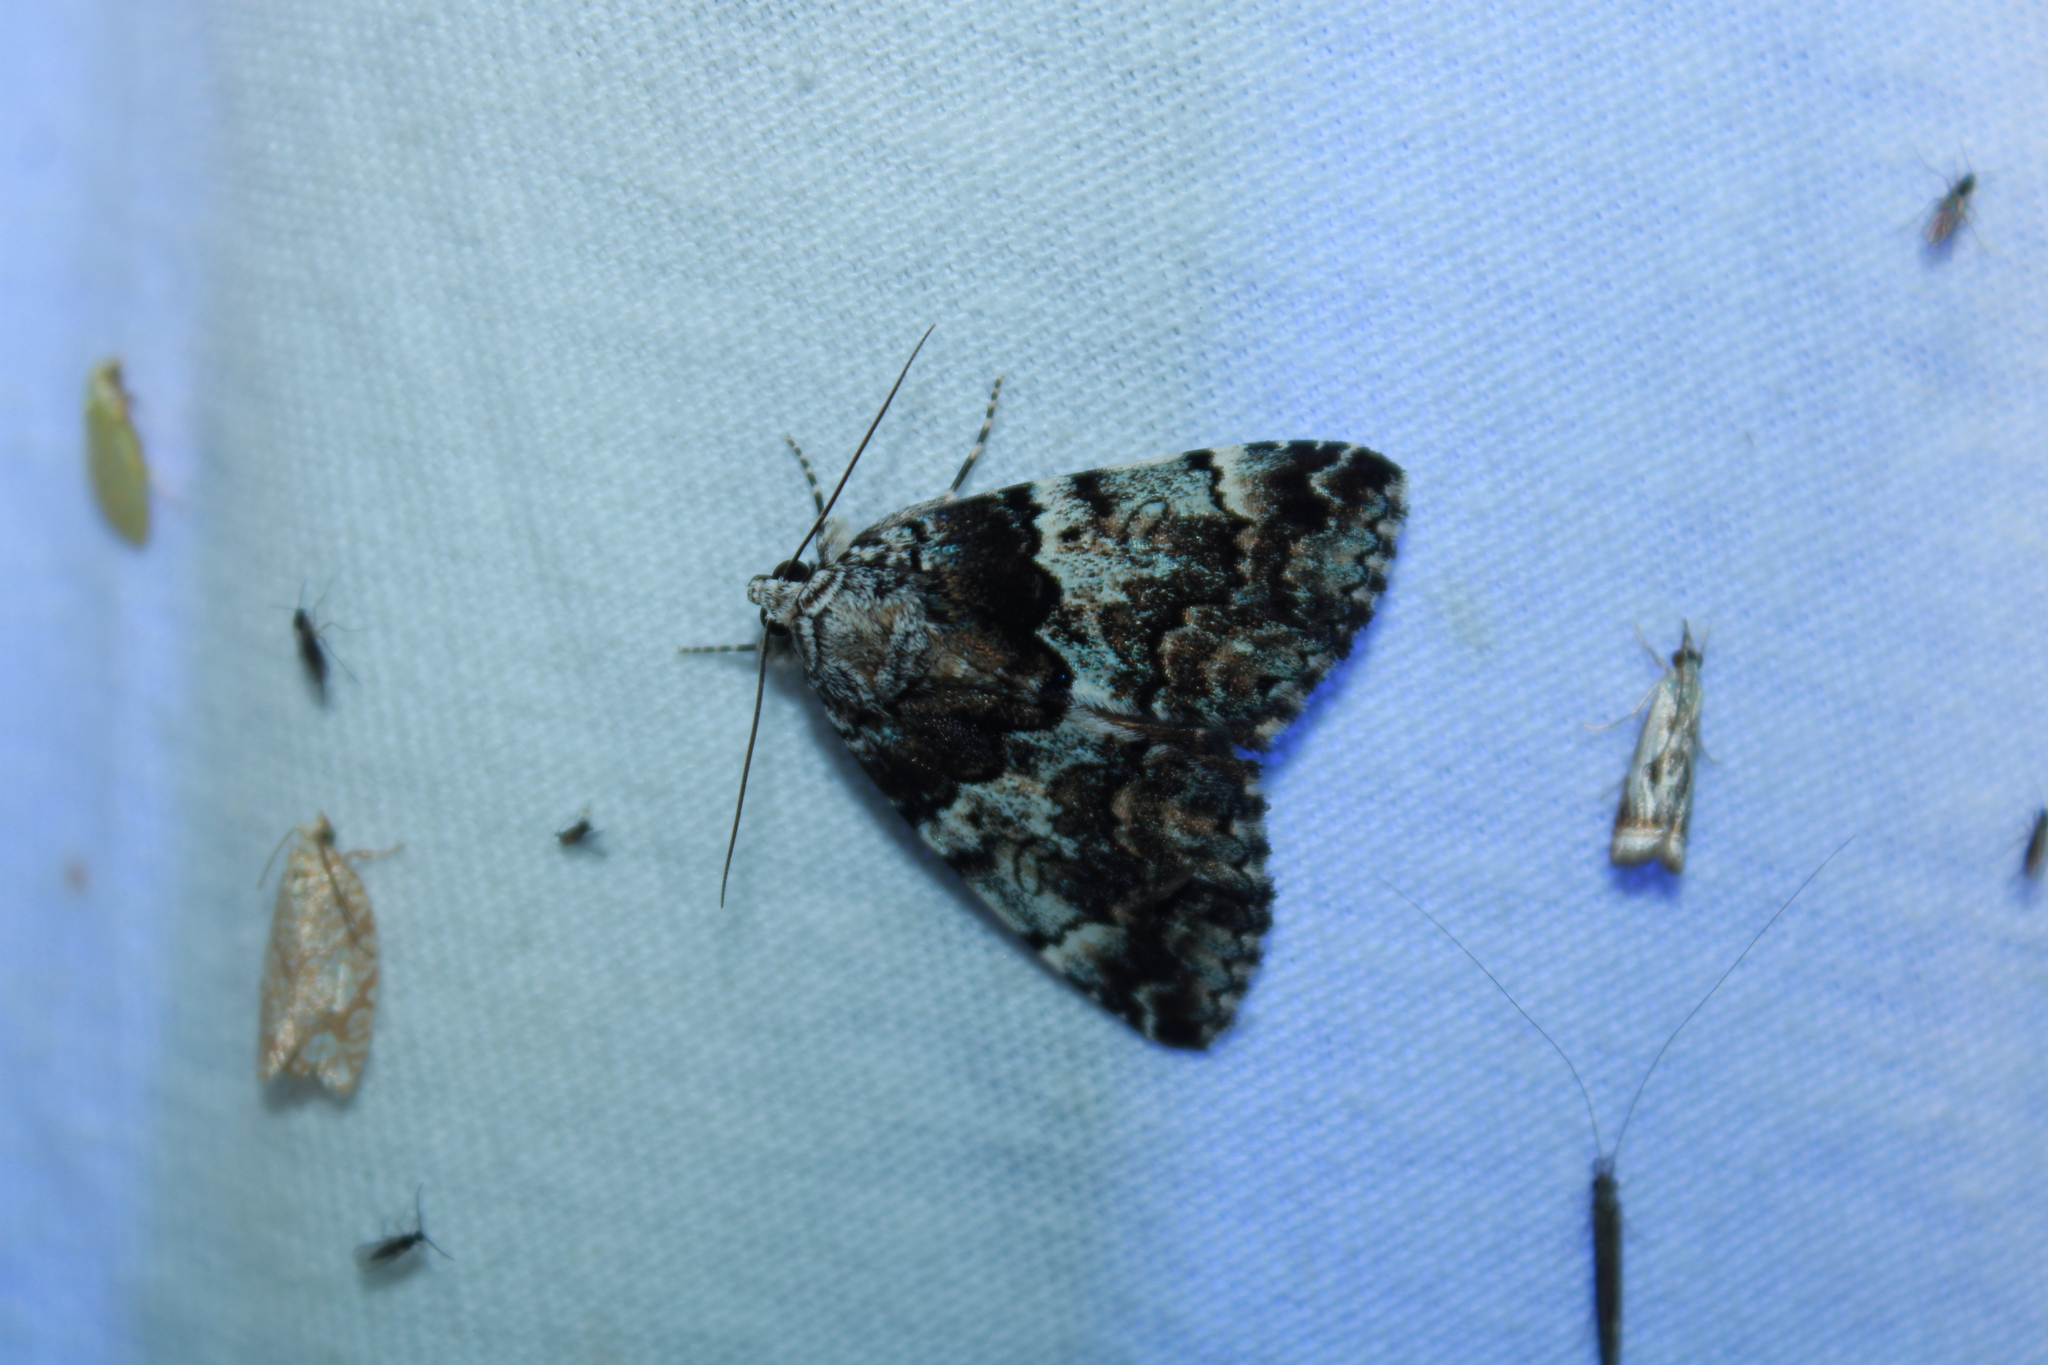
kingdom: Animalia
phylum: Arthropoda
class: Insecta
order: Lepidoptera
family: Erebidae
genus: Allotria
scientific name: Allotria elonympha
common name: False underwing
